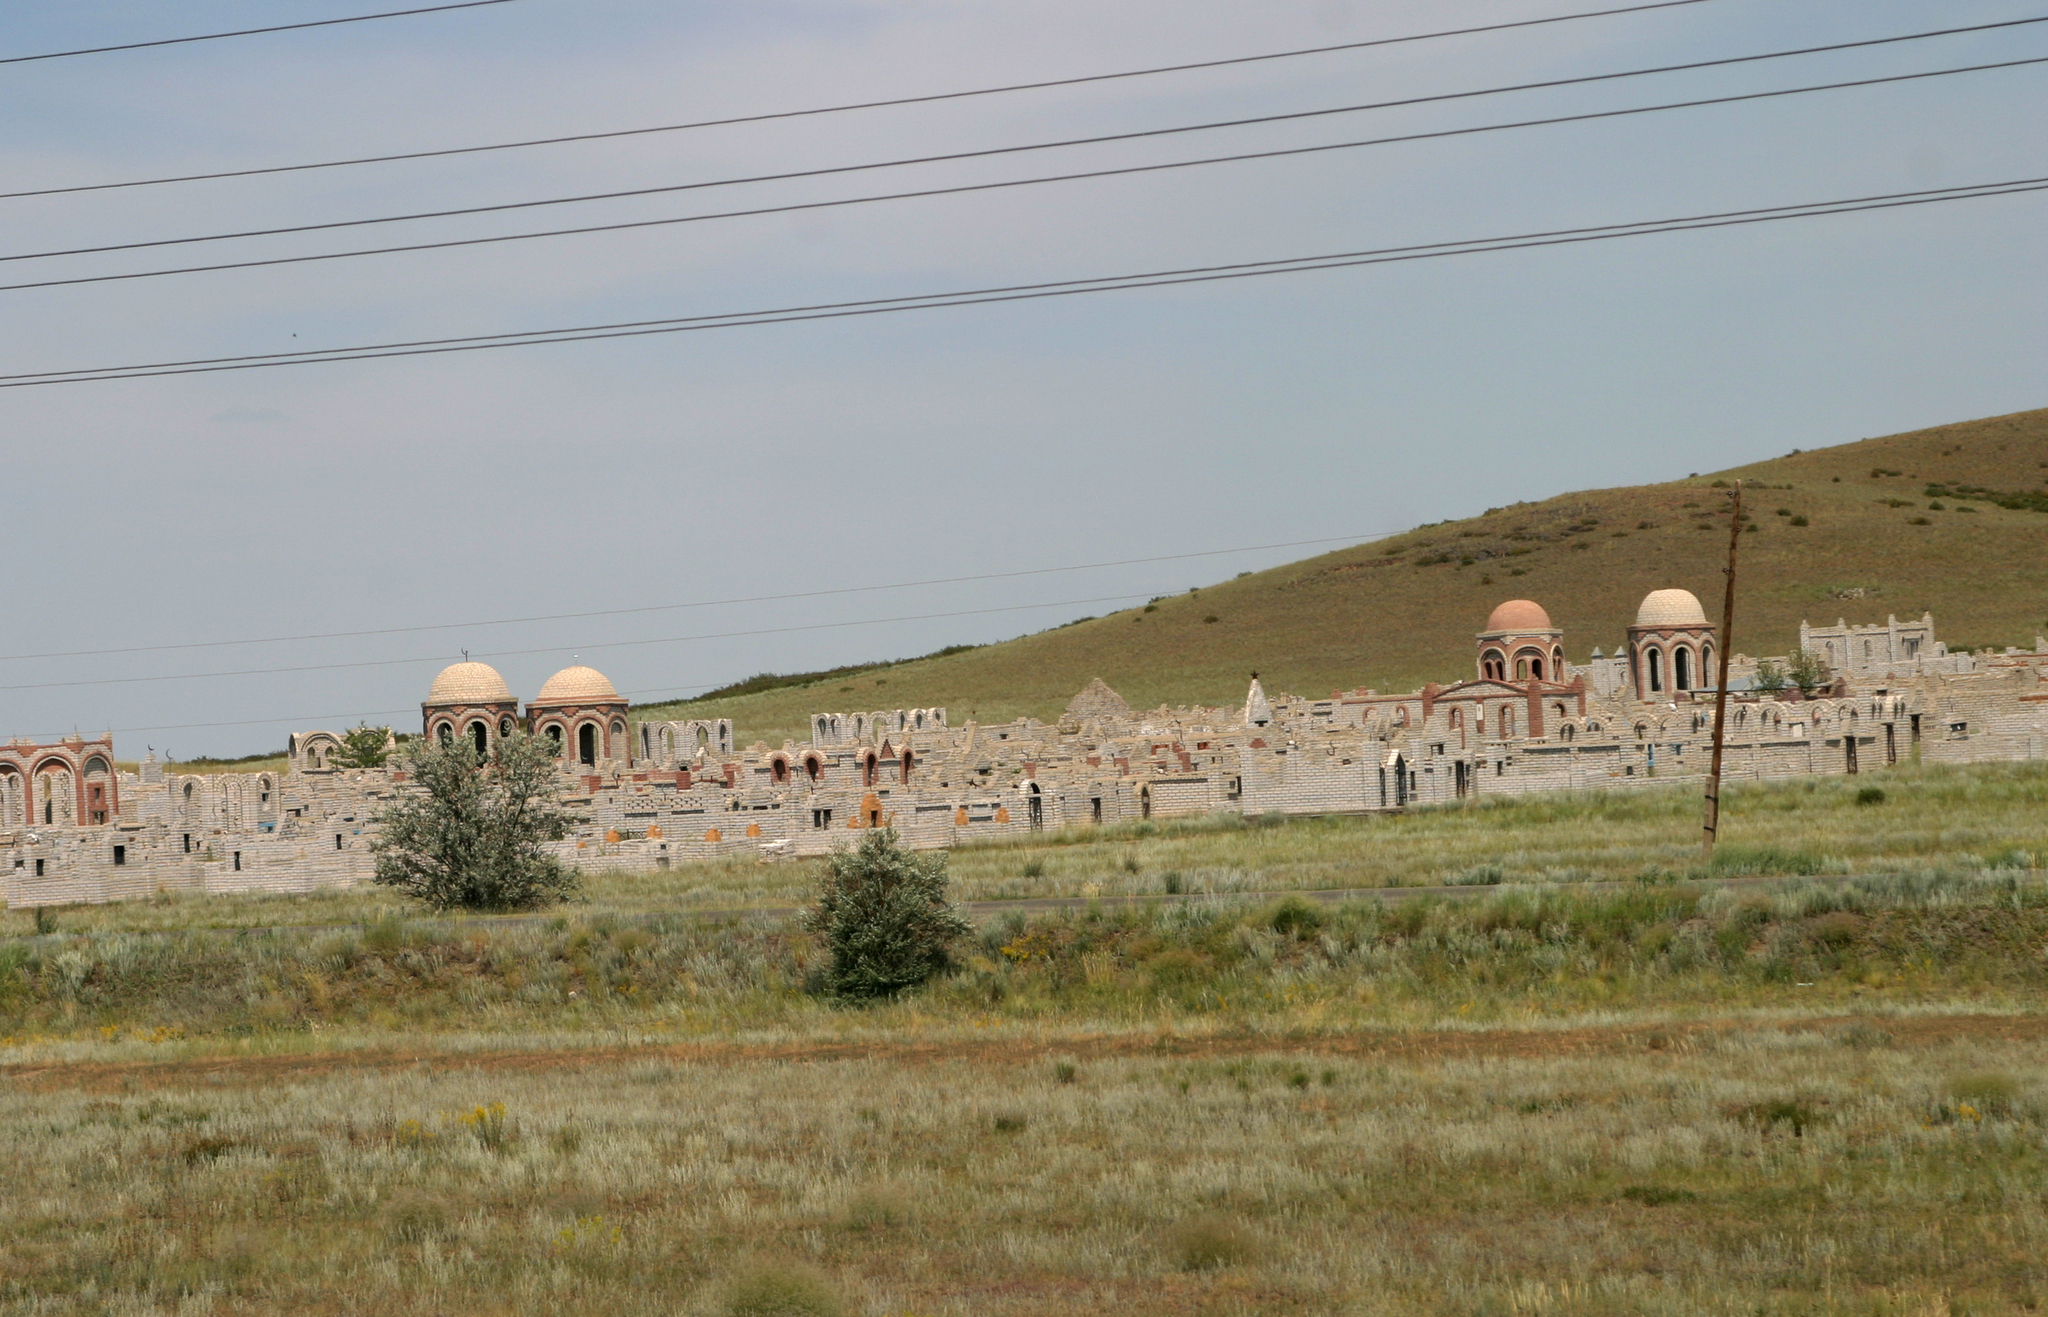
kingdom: Plantae
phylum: Tracheophyta
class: Magnoliopsida
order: Rosales
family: Elaeagnaceae
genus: Elaeagnus
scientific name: Elaeagnus angustifolia
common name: Russian olive
